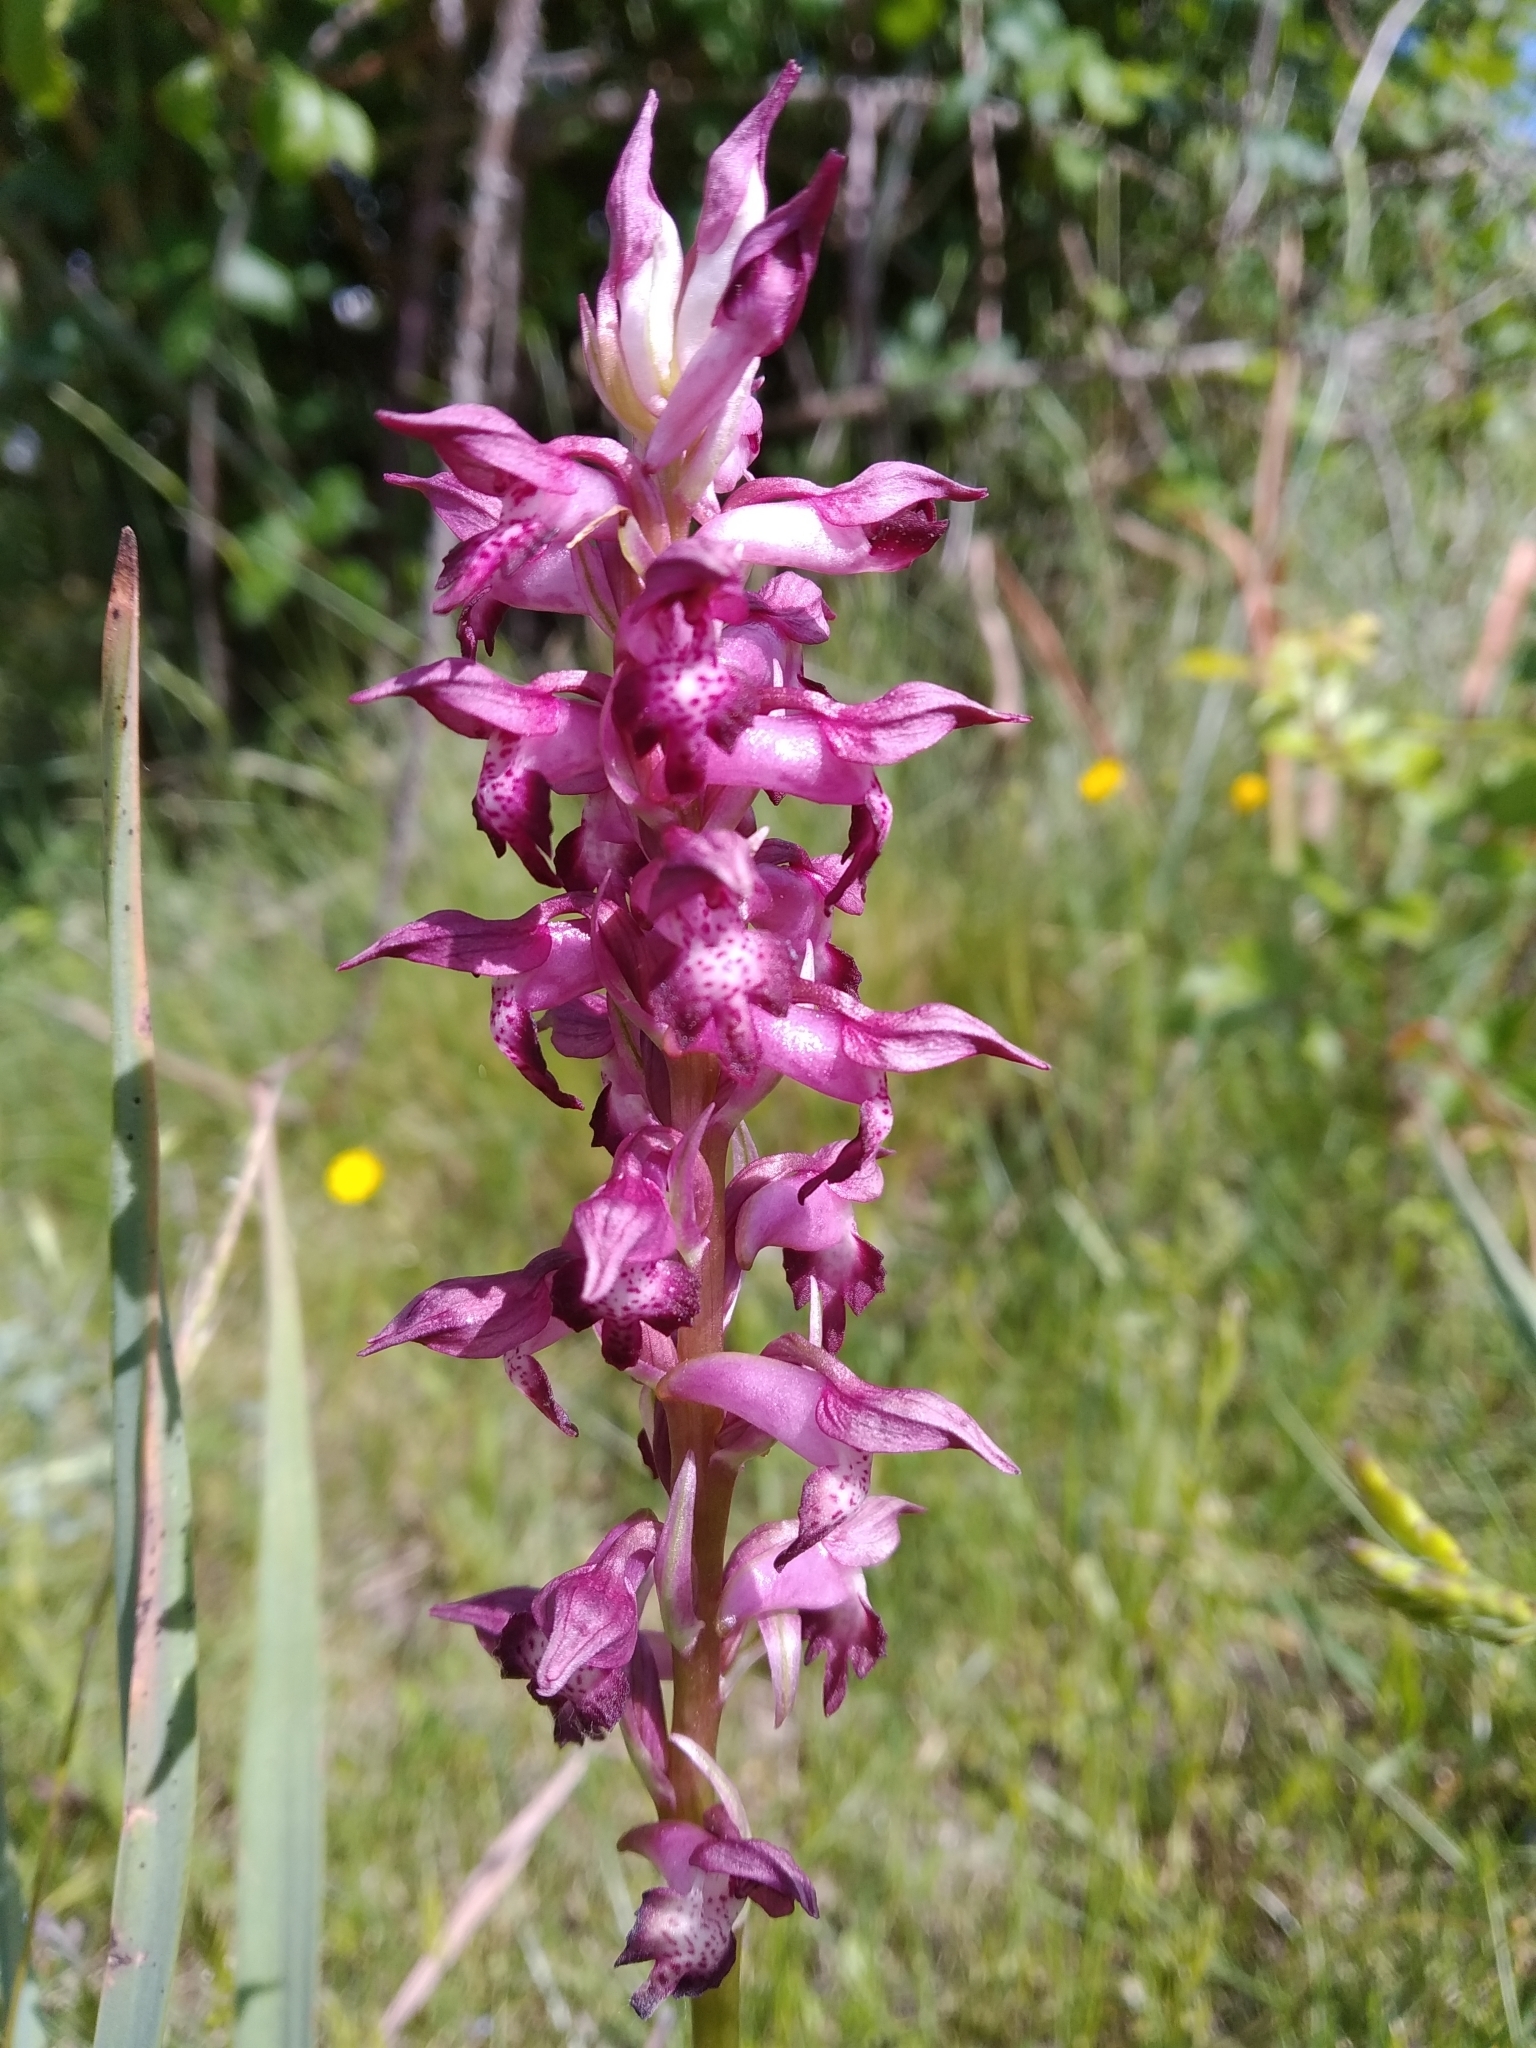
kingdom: Plantae
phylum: Tracheophyta
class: Liliopsida
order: Asparagales
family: Orchidaceae
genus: Anacamptis
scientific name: Anacamptis coriophora
